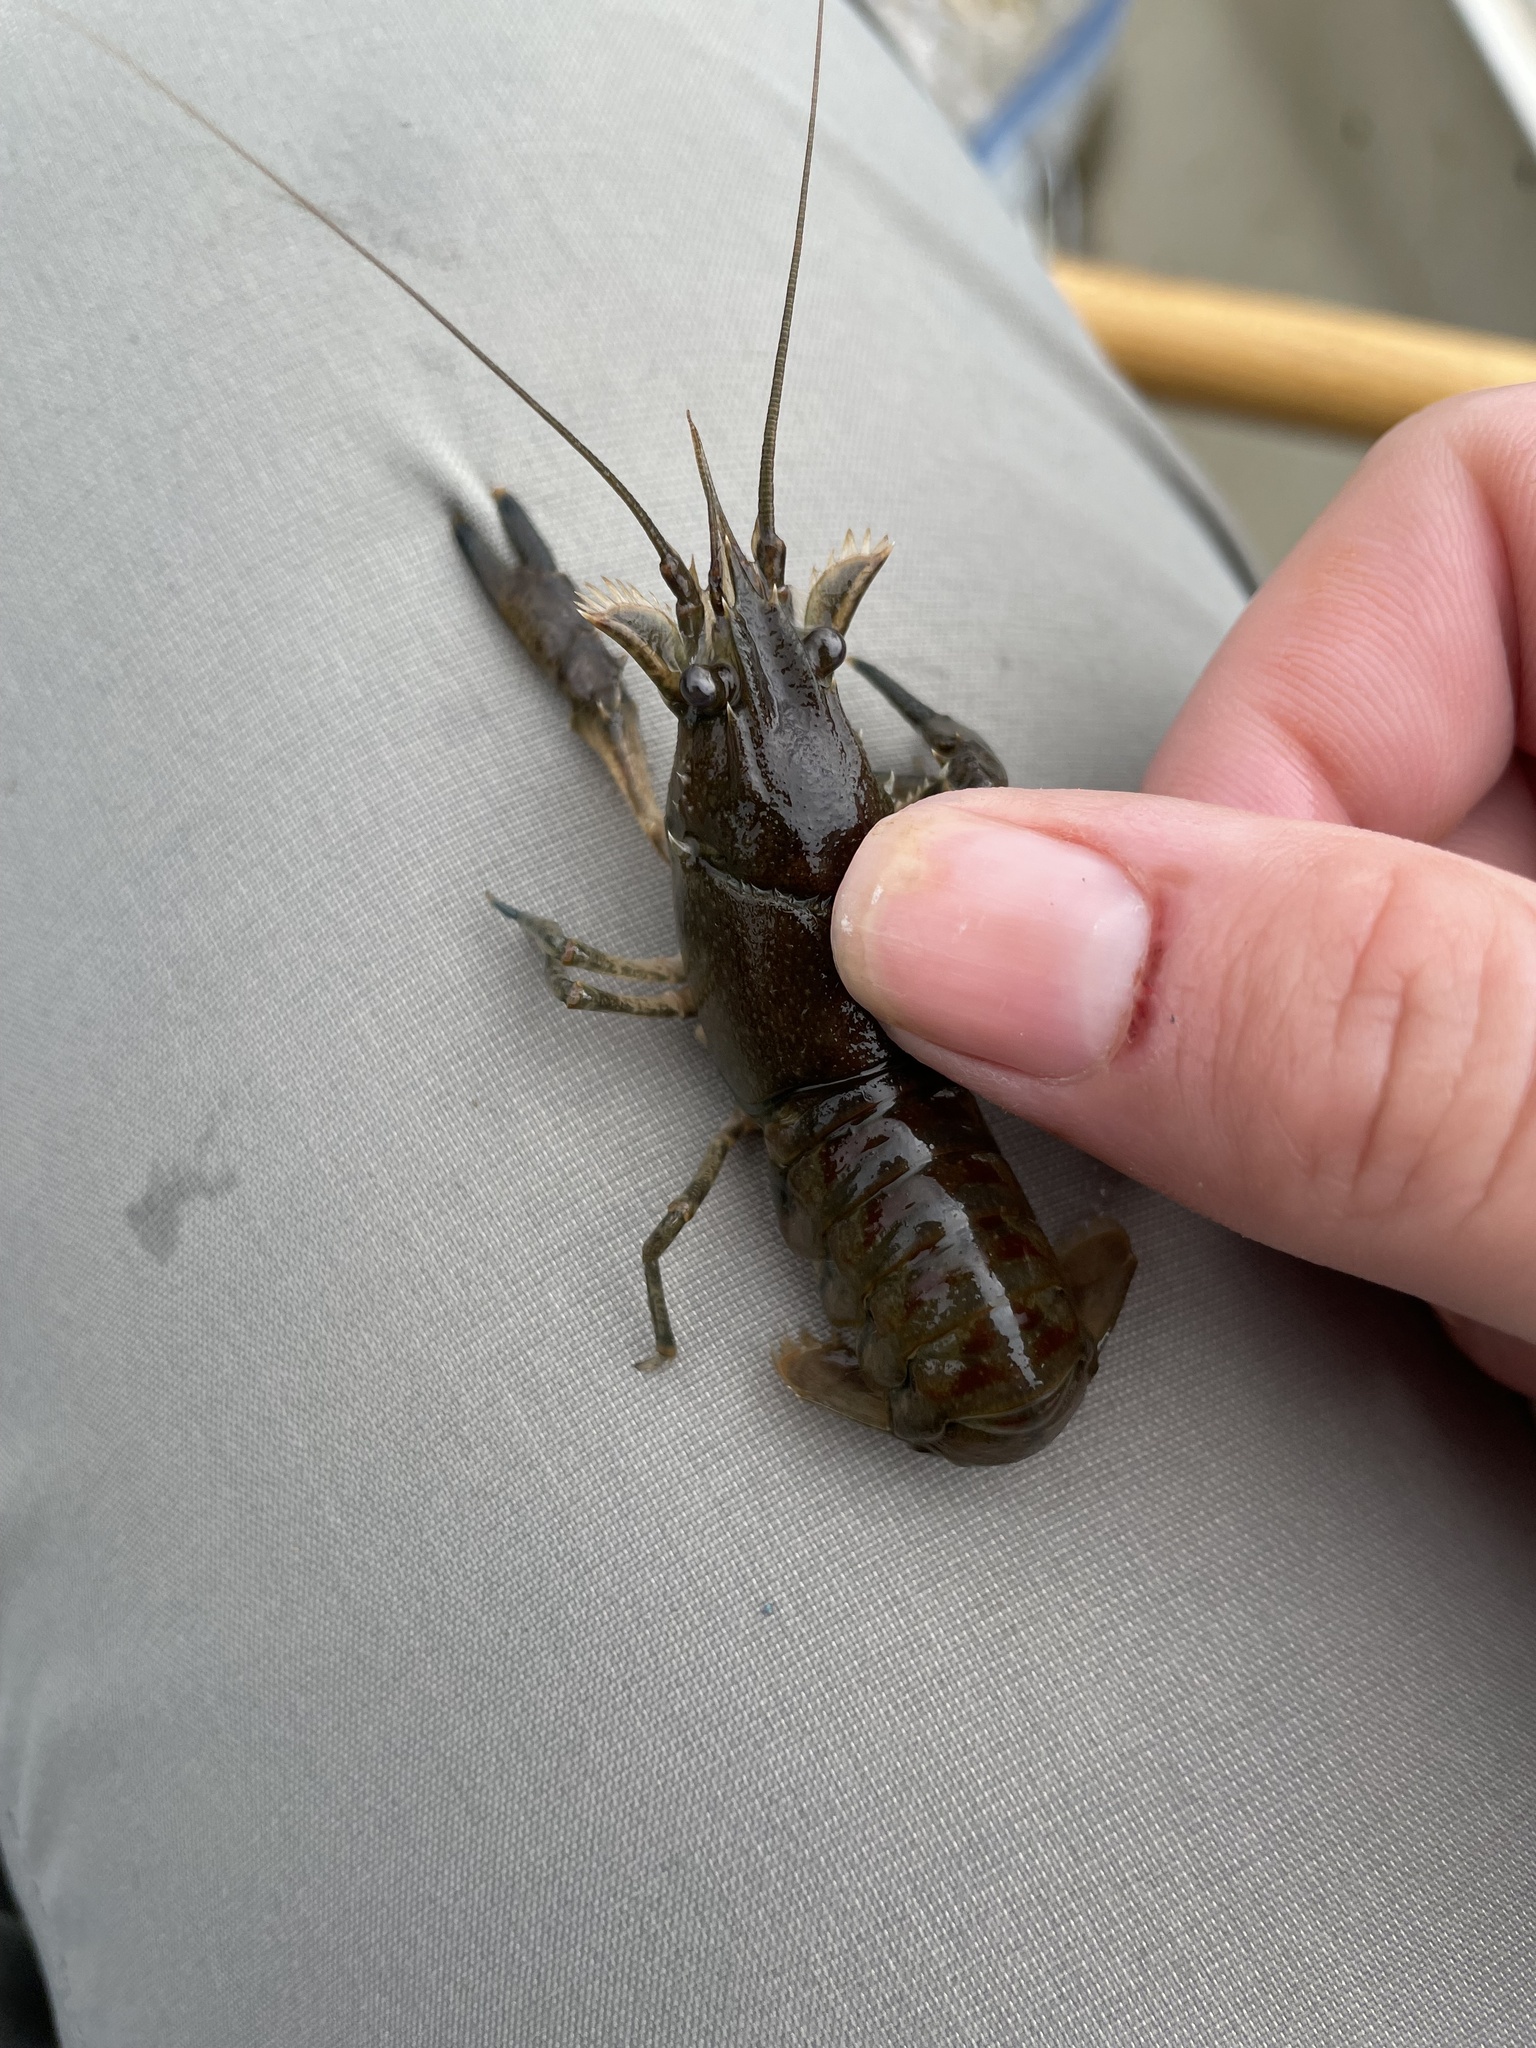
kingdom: Animalia
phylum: Arthropoda
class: Malacostraca
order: Decapoda
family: Cambaridae
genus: Faxonius
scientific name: Faxonius limosus
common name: American crayfish
